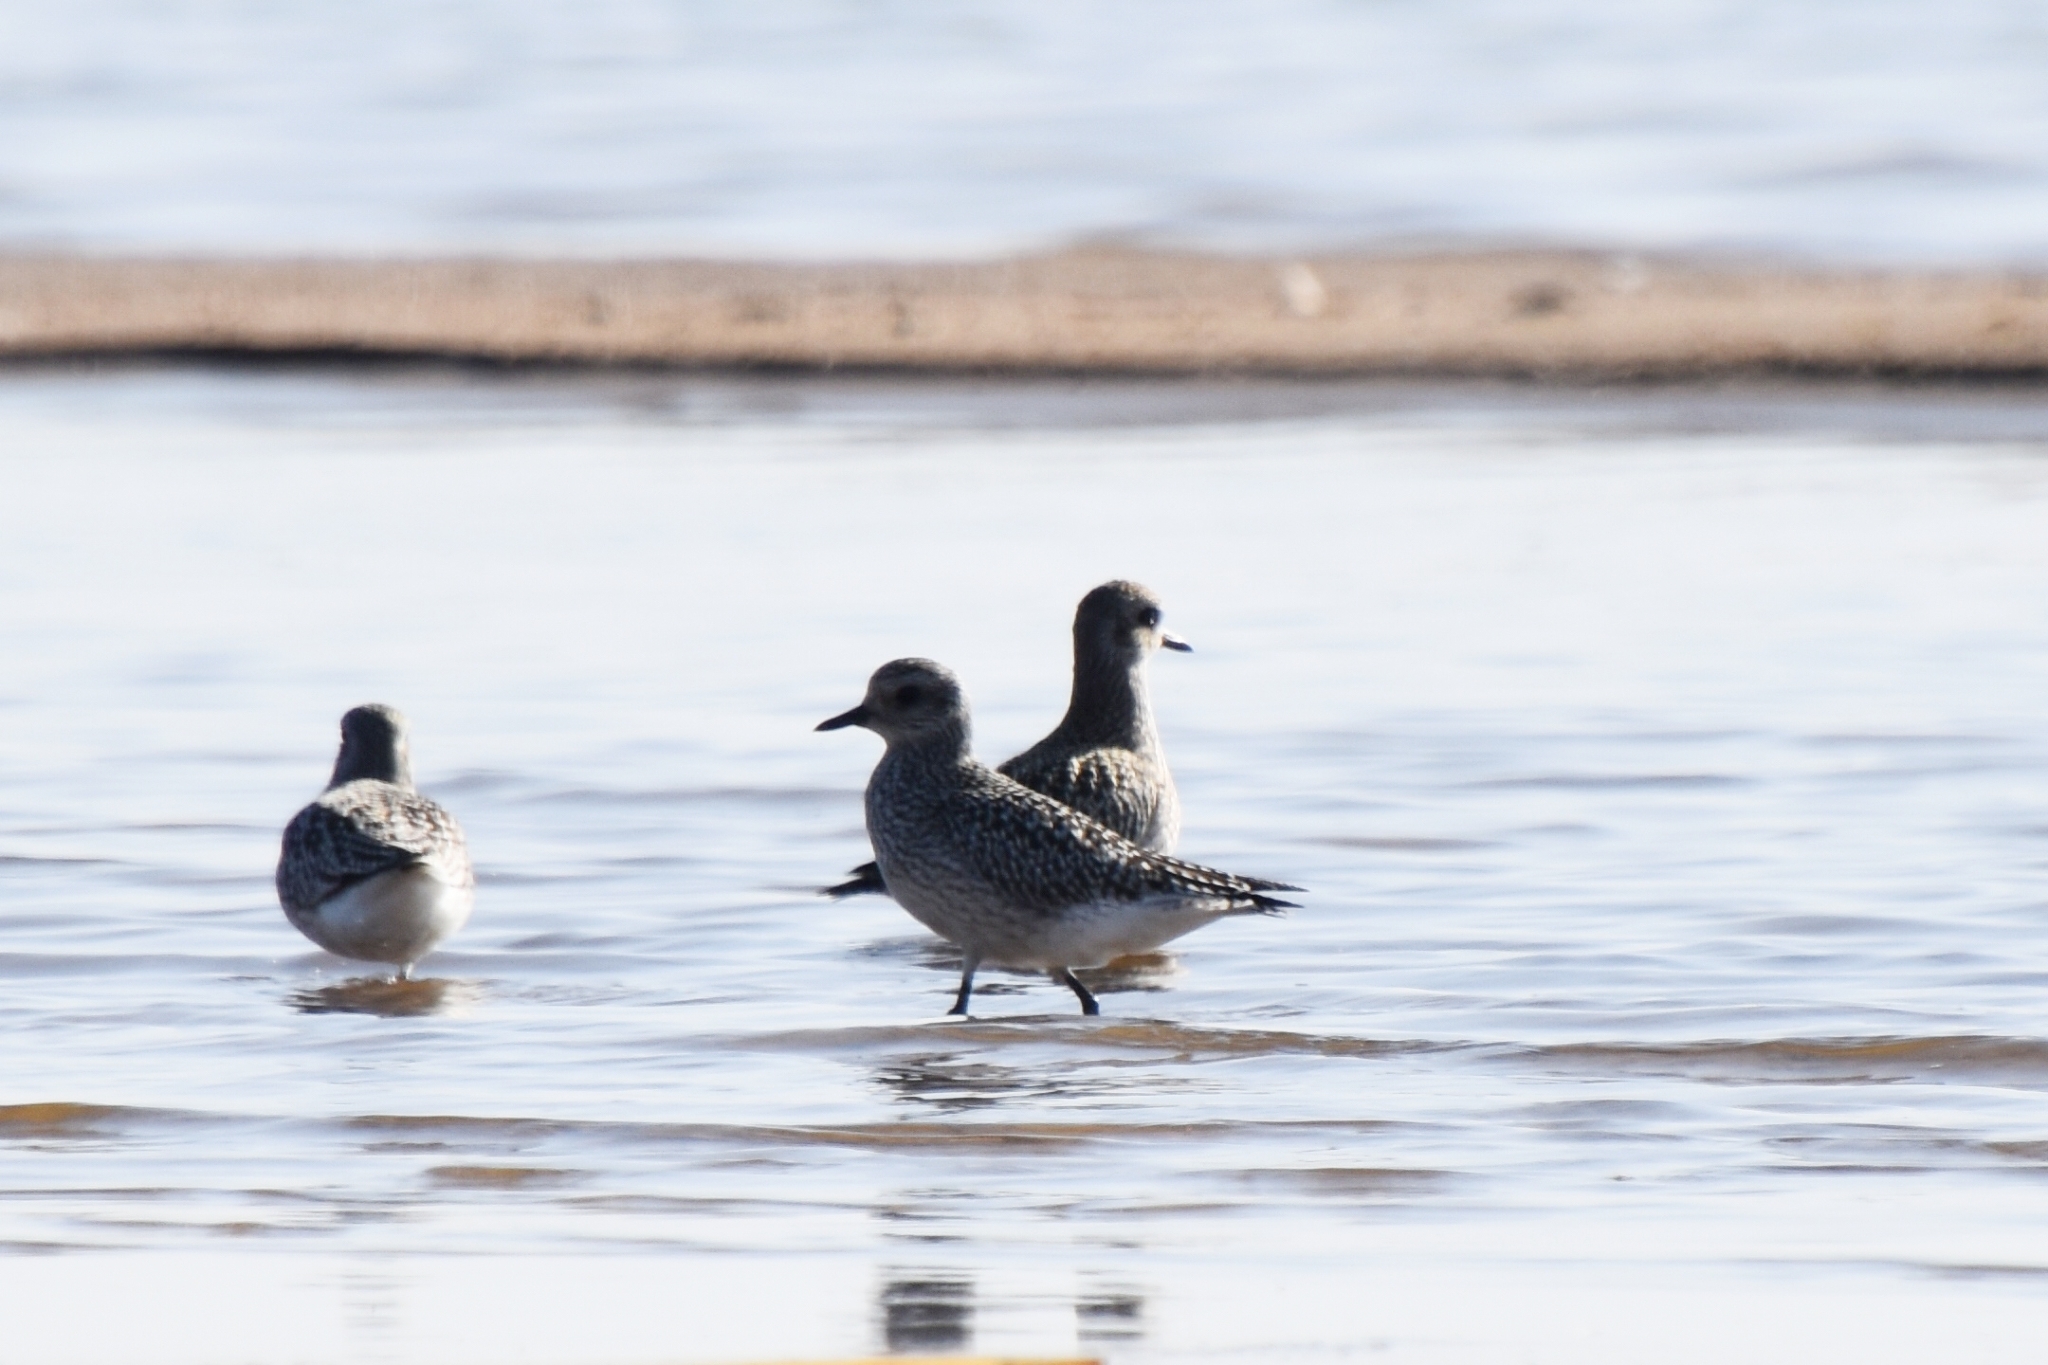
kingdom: Animalia
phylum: Chordata
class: Aves
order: Charadriiformes
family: Charadriidae
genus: Pluvialis
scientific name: Pluvialis squatarola
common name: Grey plover
